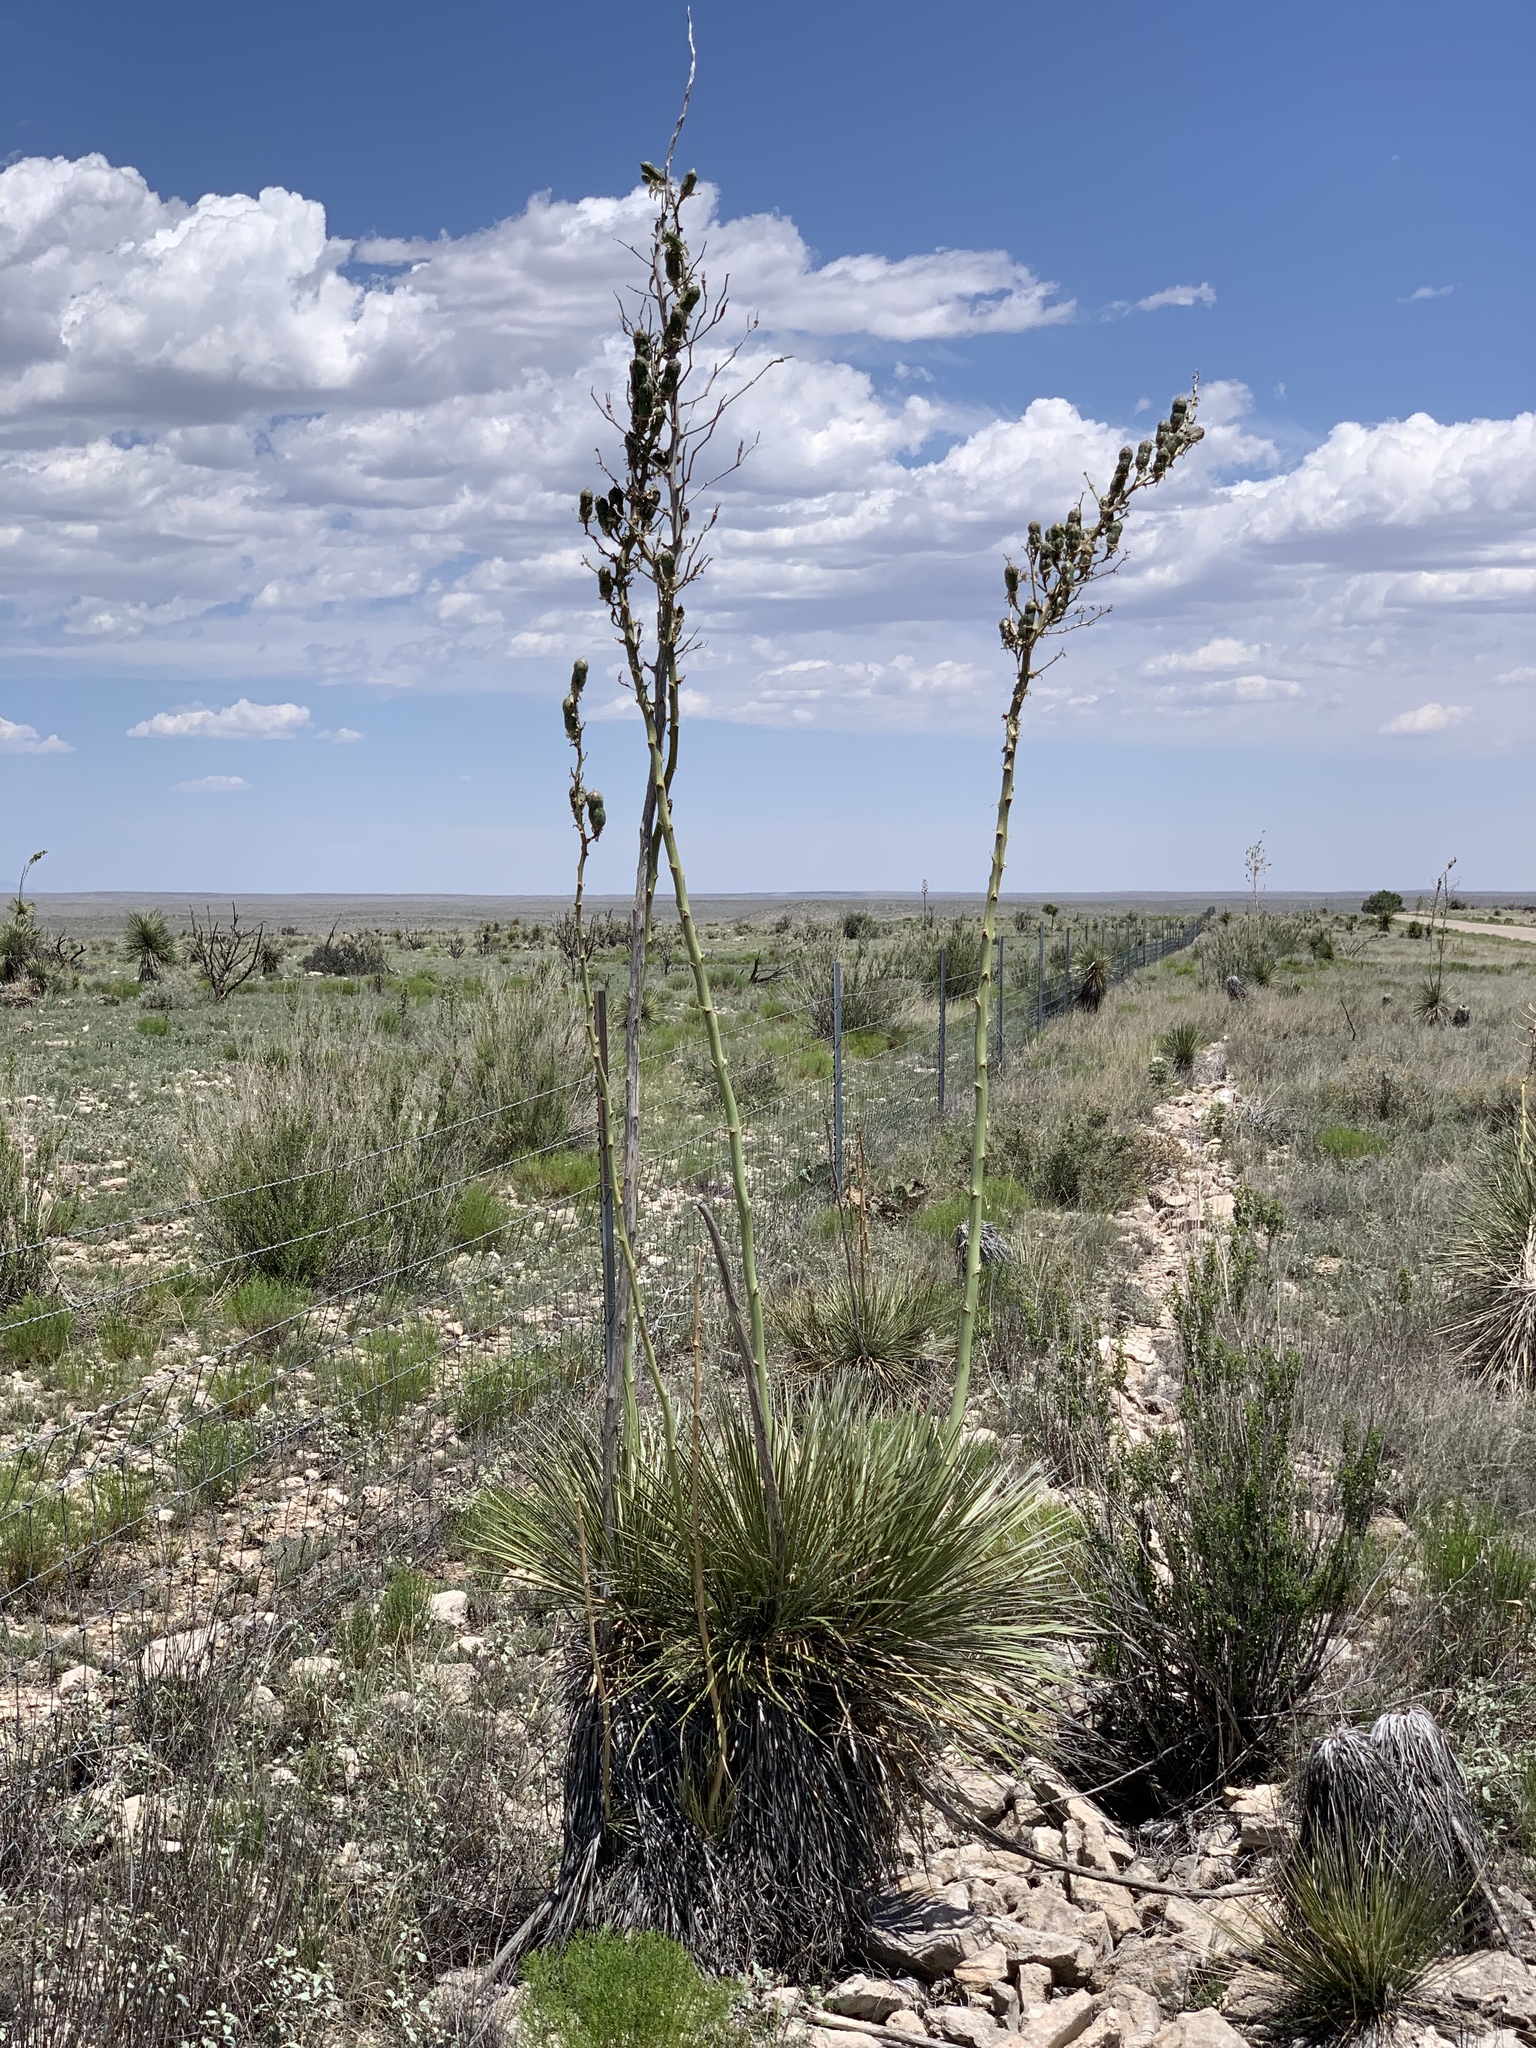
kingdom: Plantae
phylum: Tracheophyta
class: Liliopsida
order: Asparagales
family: Asparagaceae
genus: Yucca
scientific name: Yucca elata
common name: Palmella
